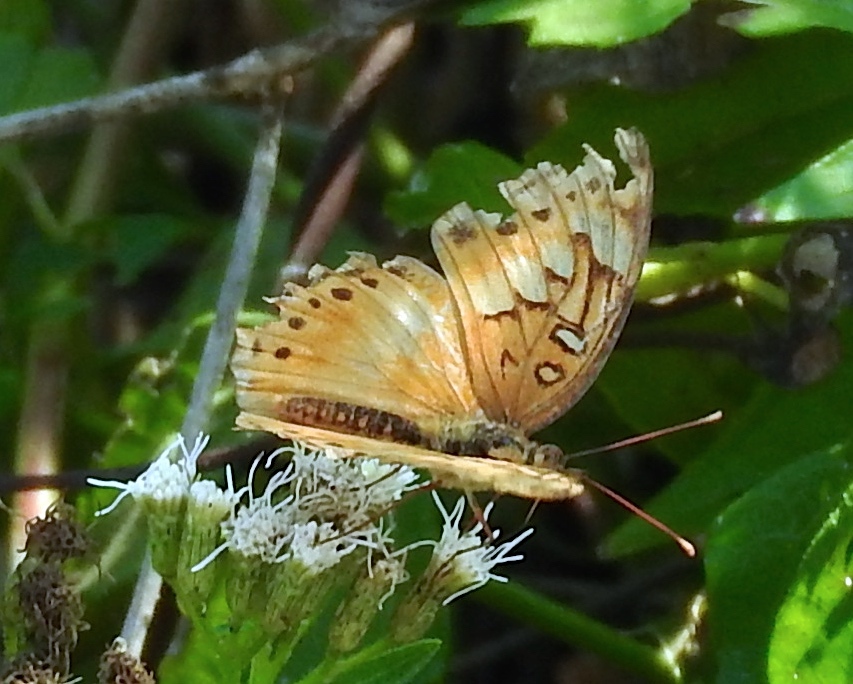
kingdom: Animalia
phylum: Arthropoda
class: Insecta
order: Lepidoptera
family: Nymphalidae
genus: Euptoieta
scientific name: Euptoieta hegesia
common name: Mexican fritillary
